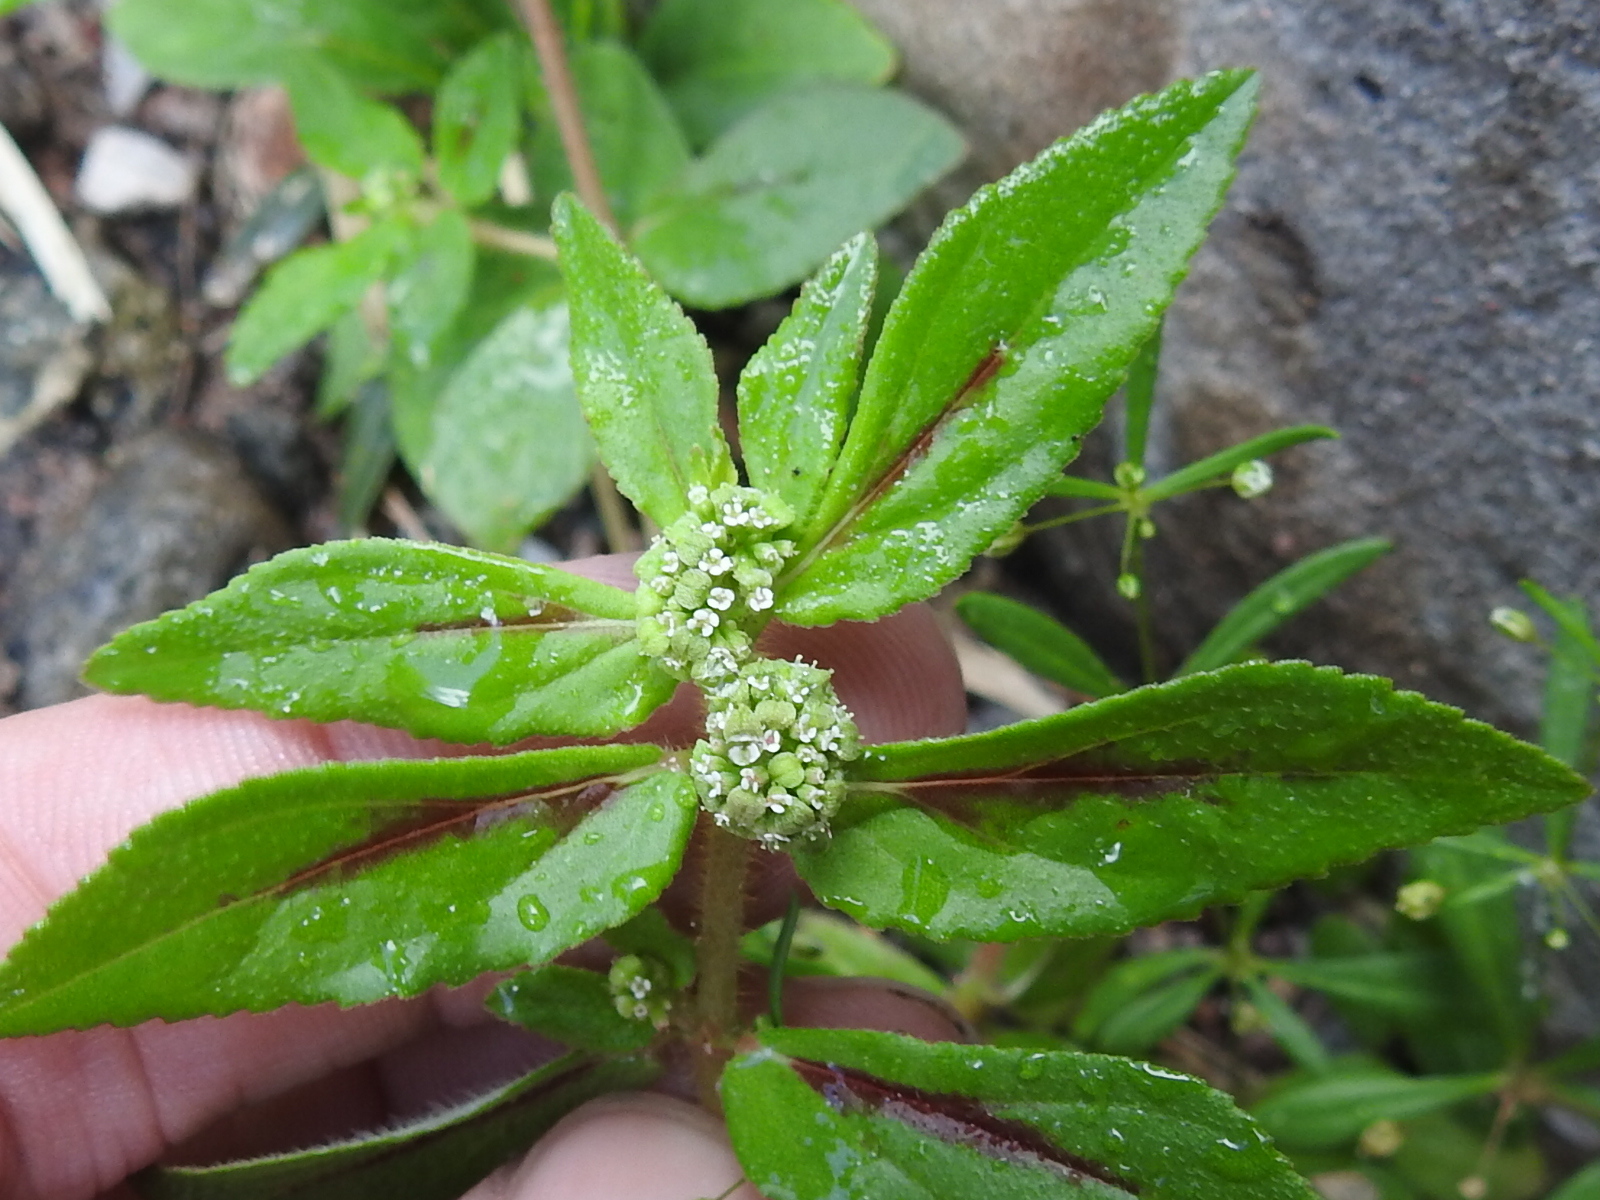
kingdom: Plantae
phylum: Tracheophyta
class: Magnoliopsida
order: Malpighiales
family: Euphorbiaceae
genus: Euphorbia
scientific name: Euphorbia hirta
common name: Pillpod sandmat
